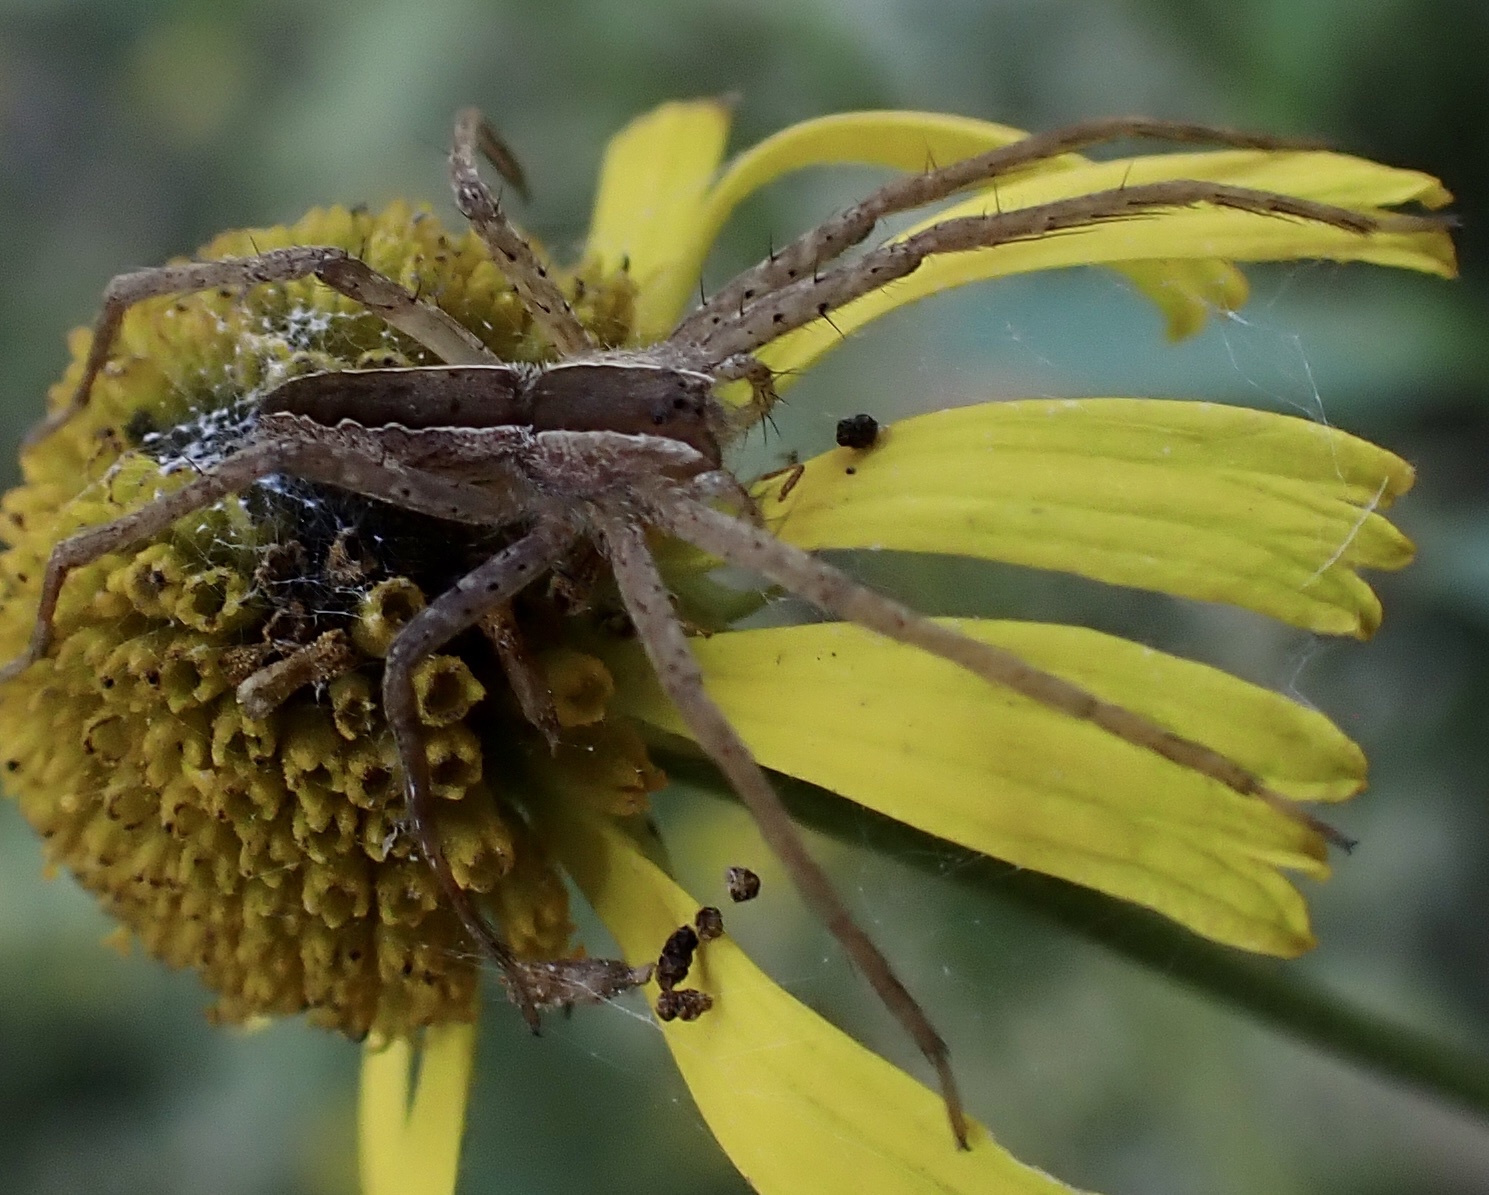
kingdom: Animalia
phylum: Arthropoda
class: Arachnida
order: Araneae
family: Pisauridae
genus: Pisaurina
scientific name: Pisaurina mira
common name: American nursery web spider
